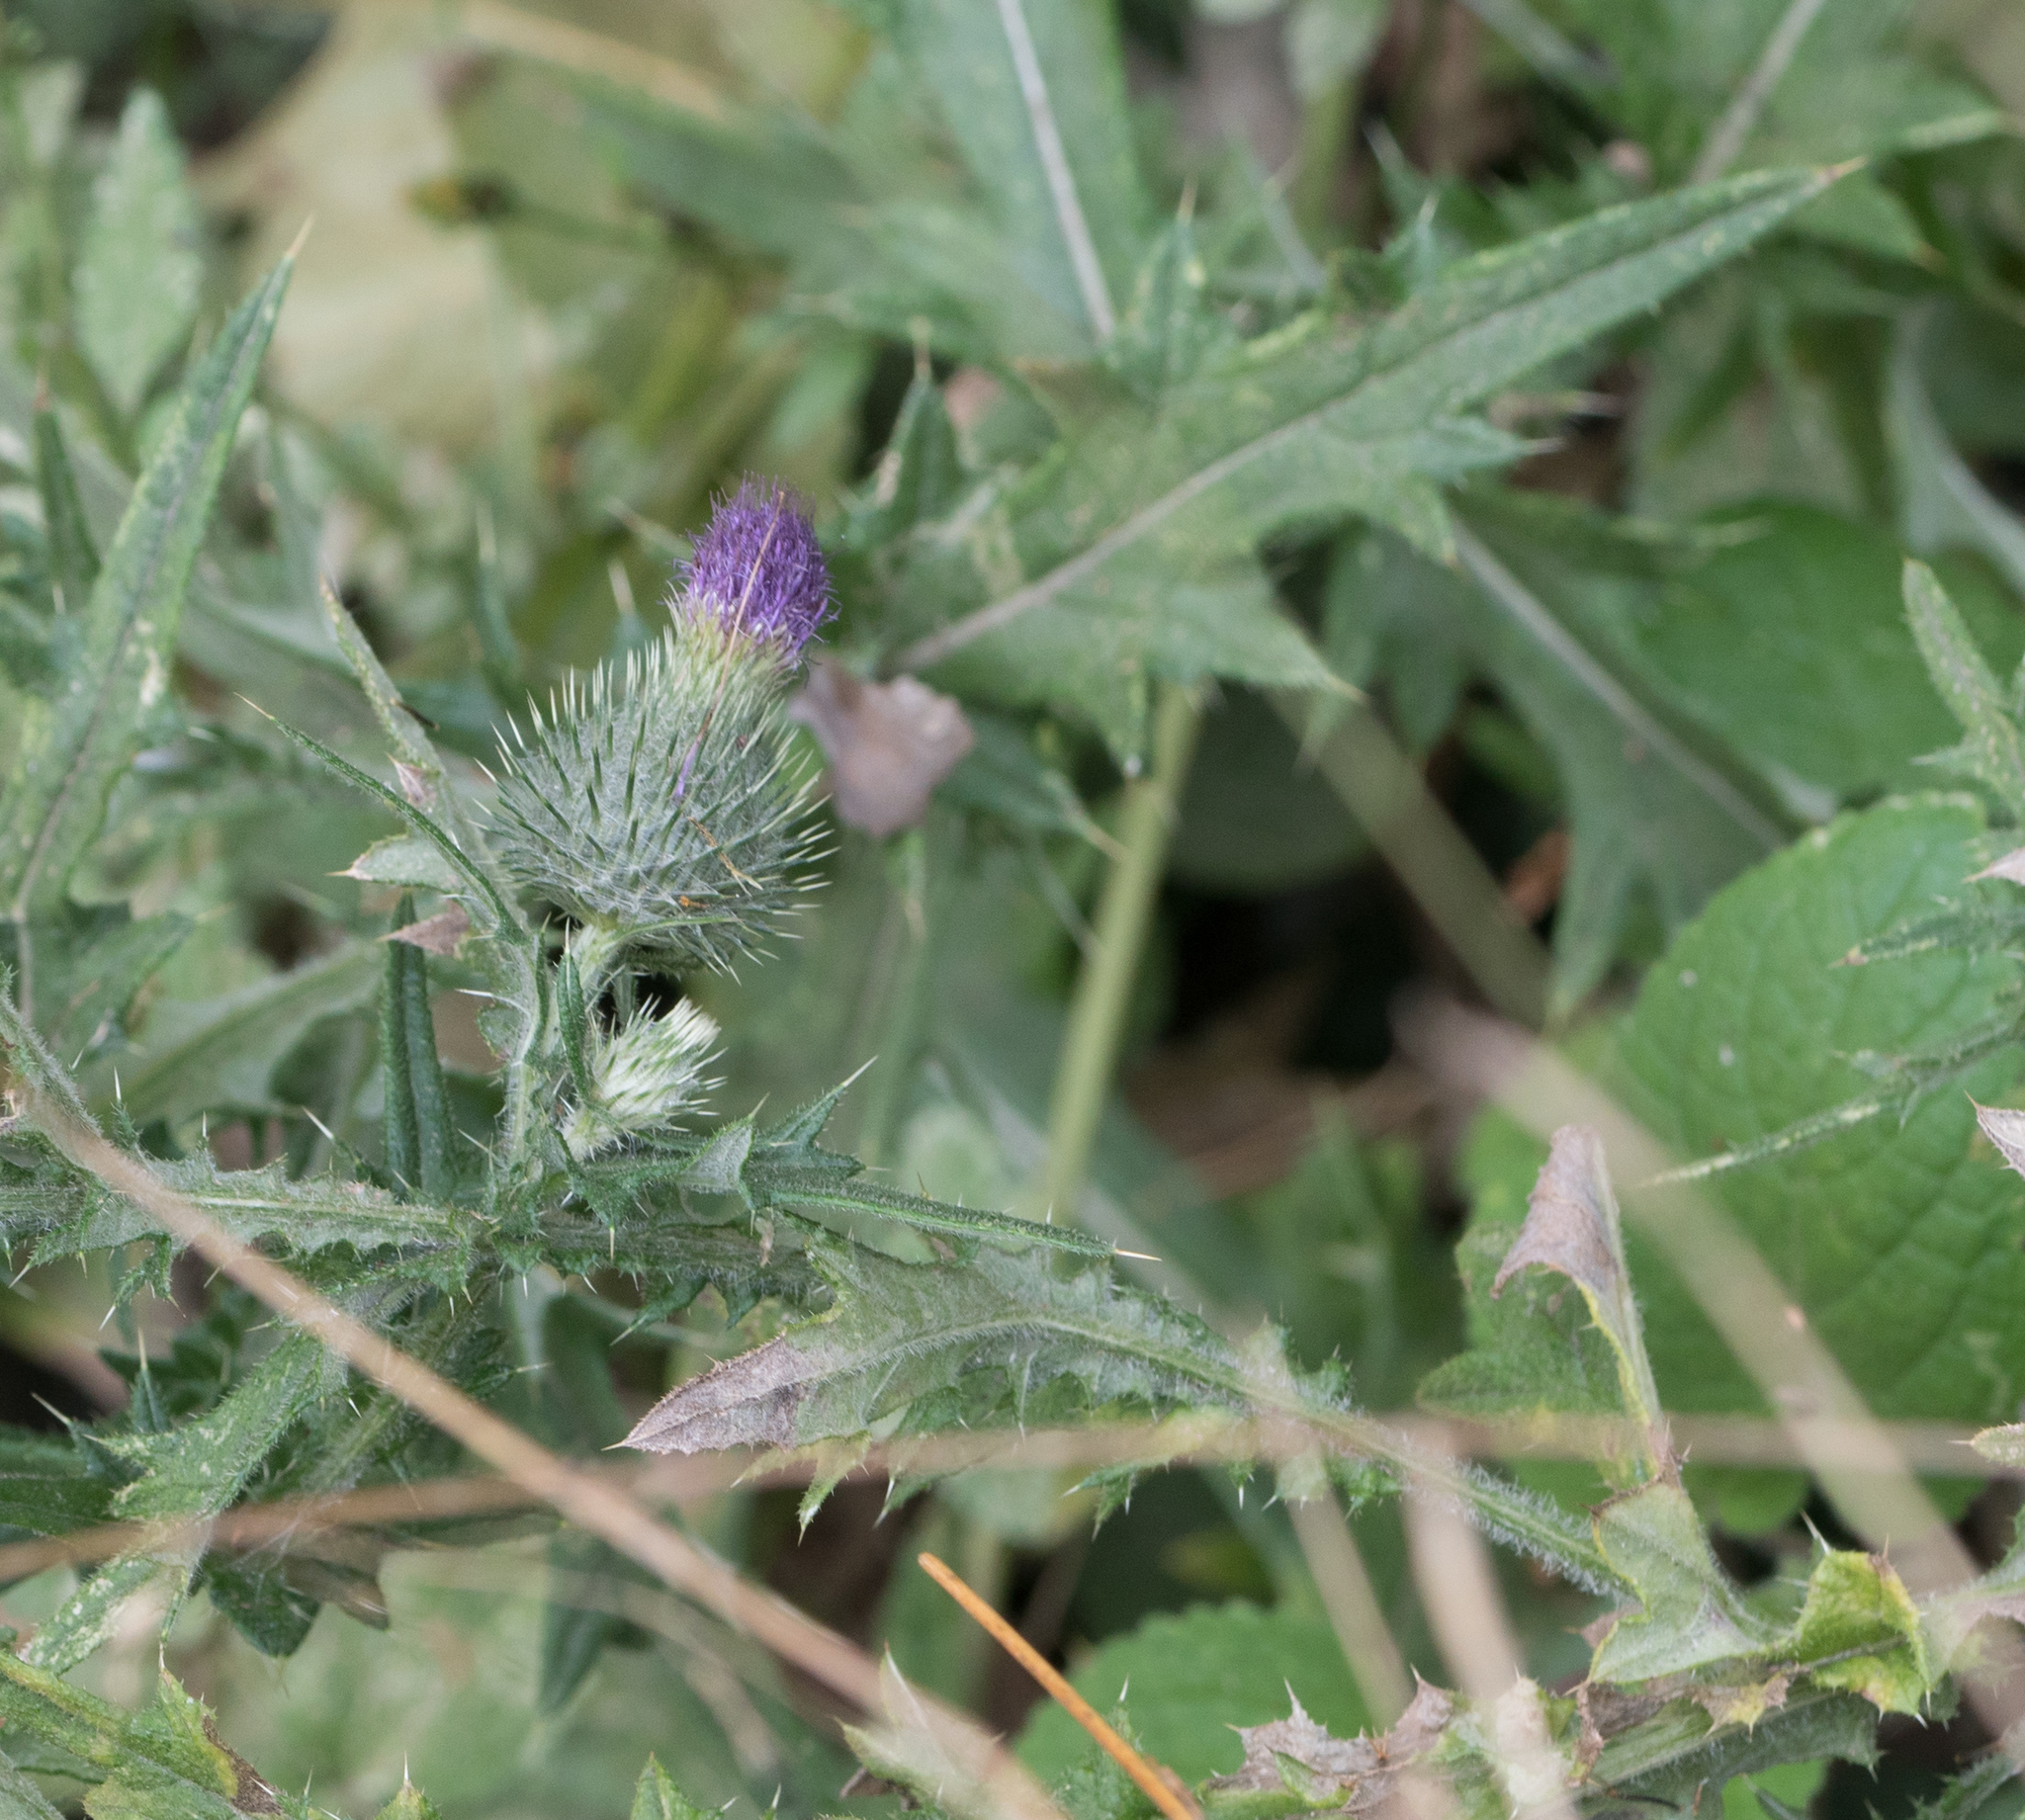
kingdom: Plantae
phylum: Tracheophyta
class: Magnoliopsida
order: Asterales
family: Asteraceae
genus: Cirsium
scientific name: Cirsium vulgare
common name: Bull thistle
